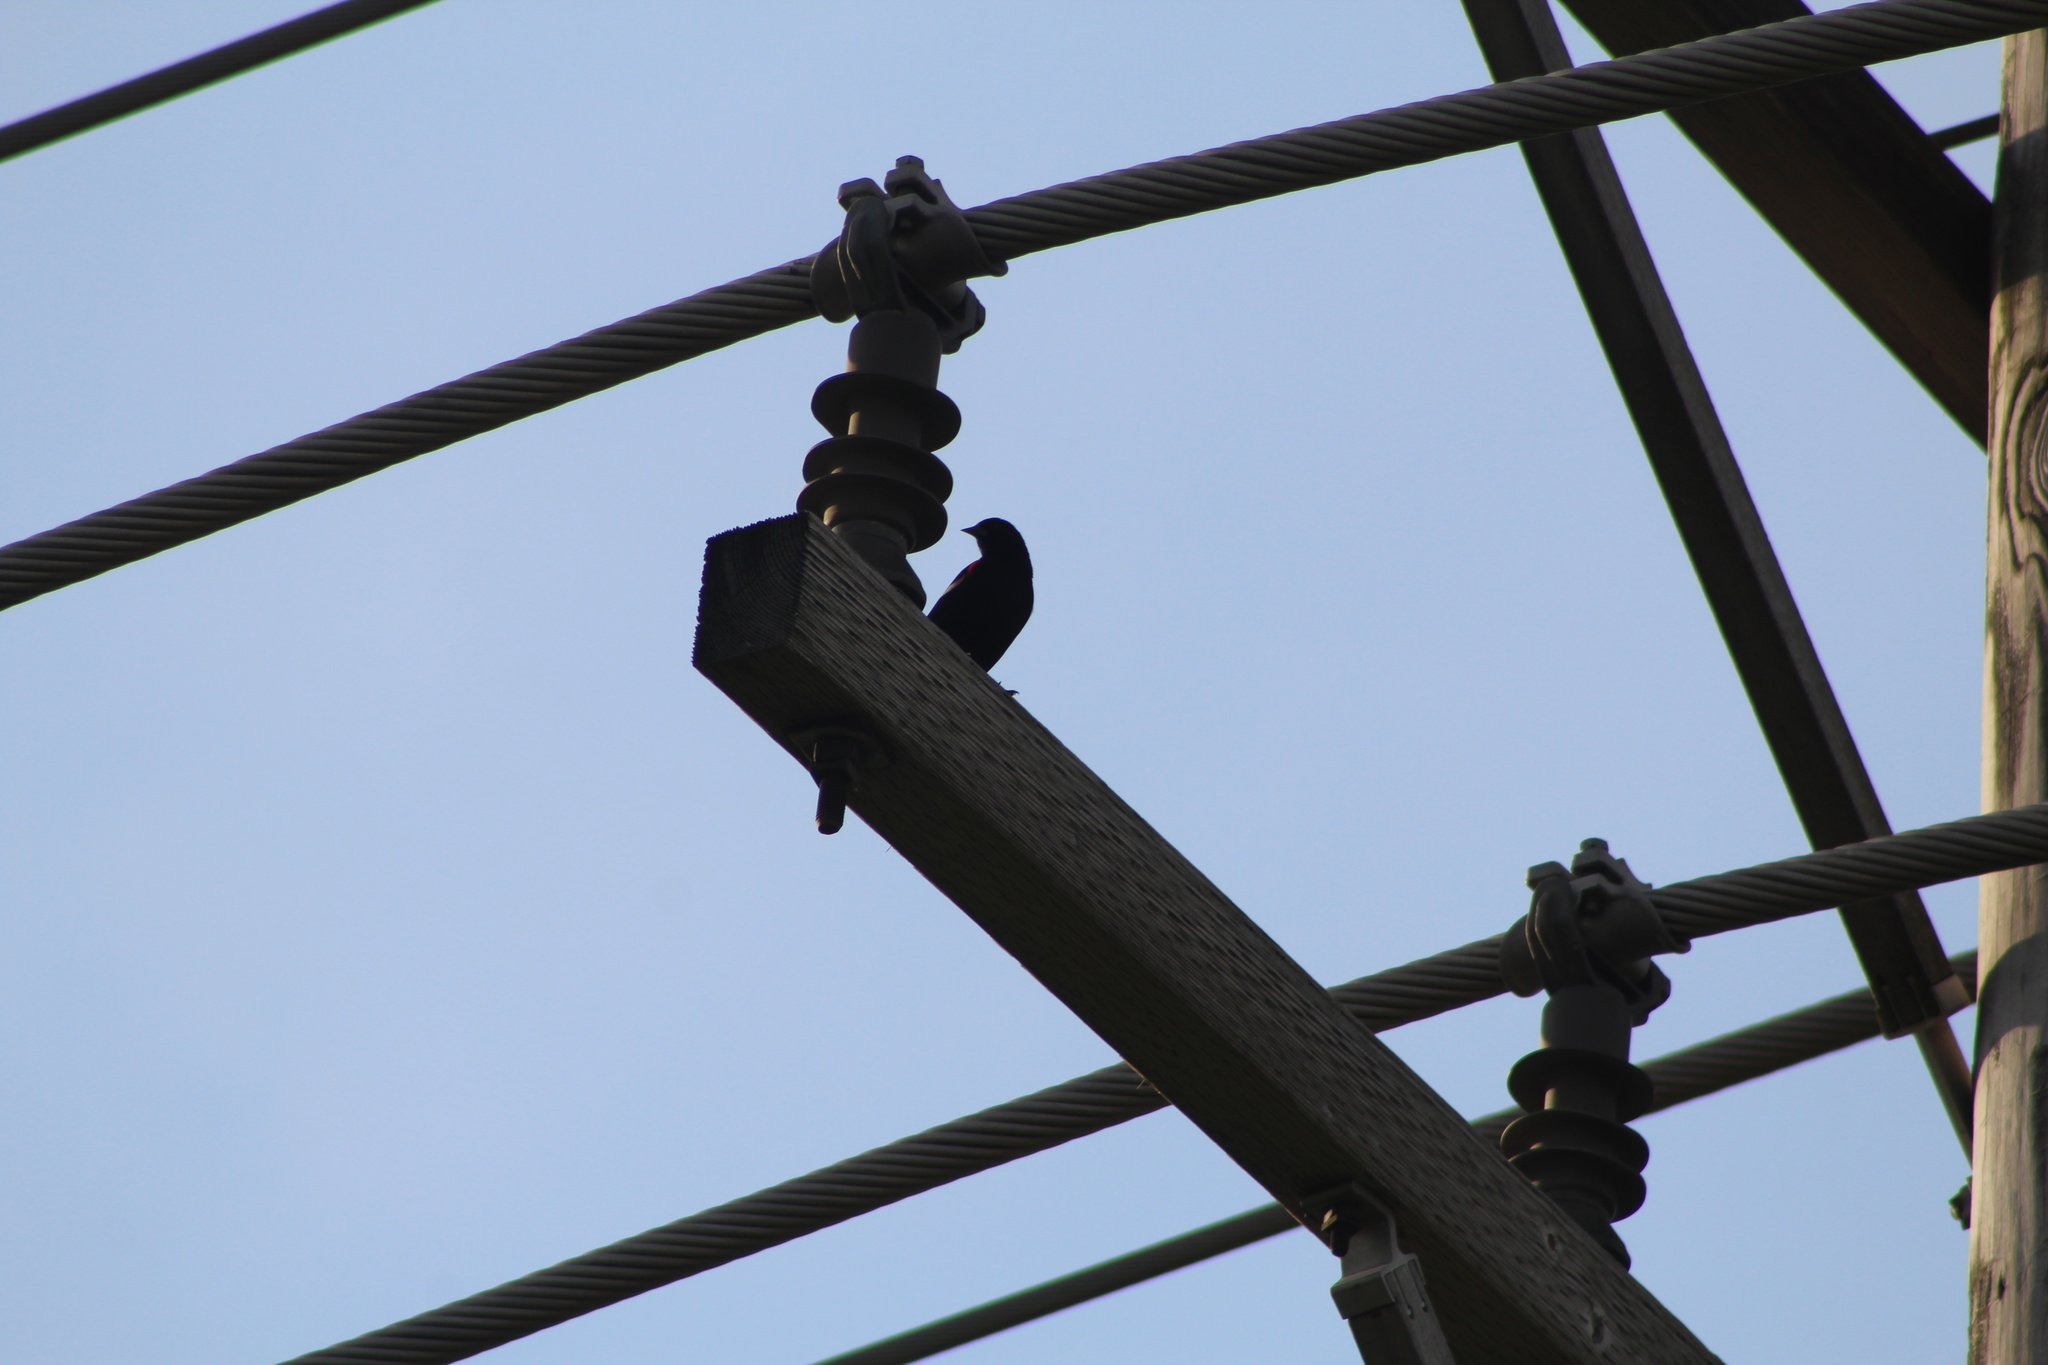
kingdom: Animalia
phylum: Chordata
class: Aves
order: Passeriformes
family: Icteridae
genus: Agelaius
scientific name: Agelaius phoeniceus
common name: Red-winged blackbird
